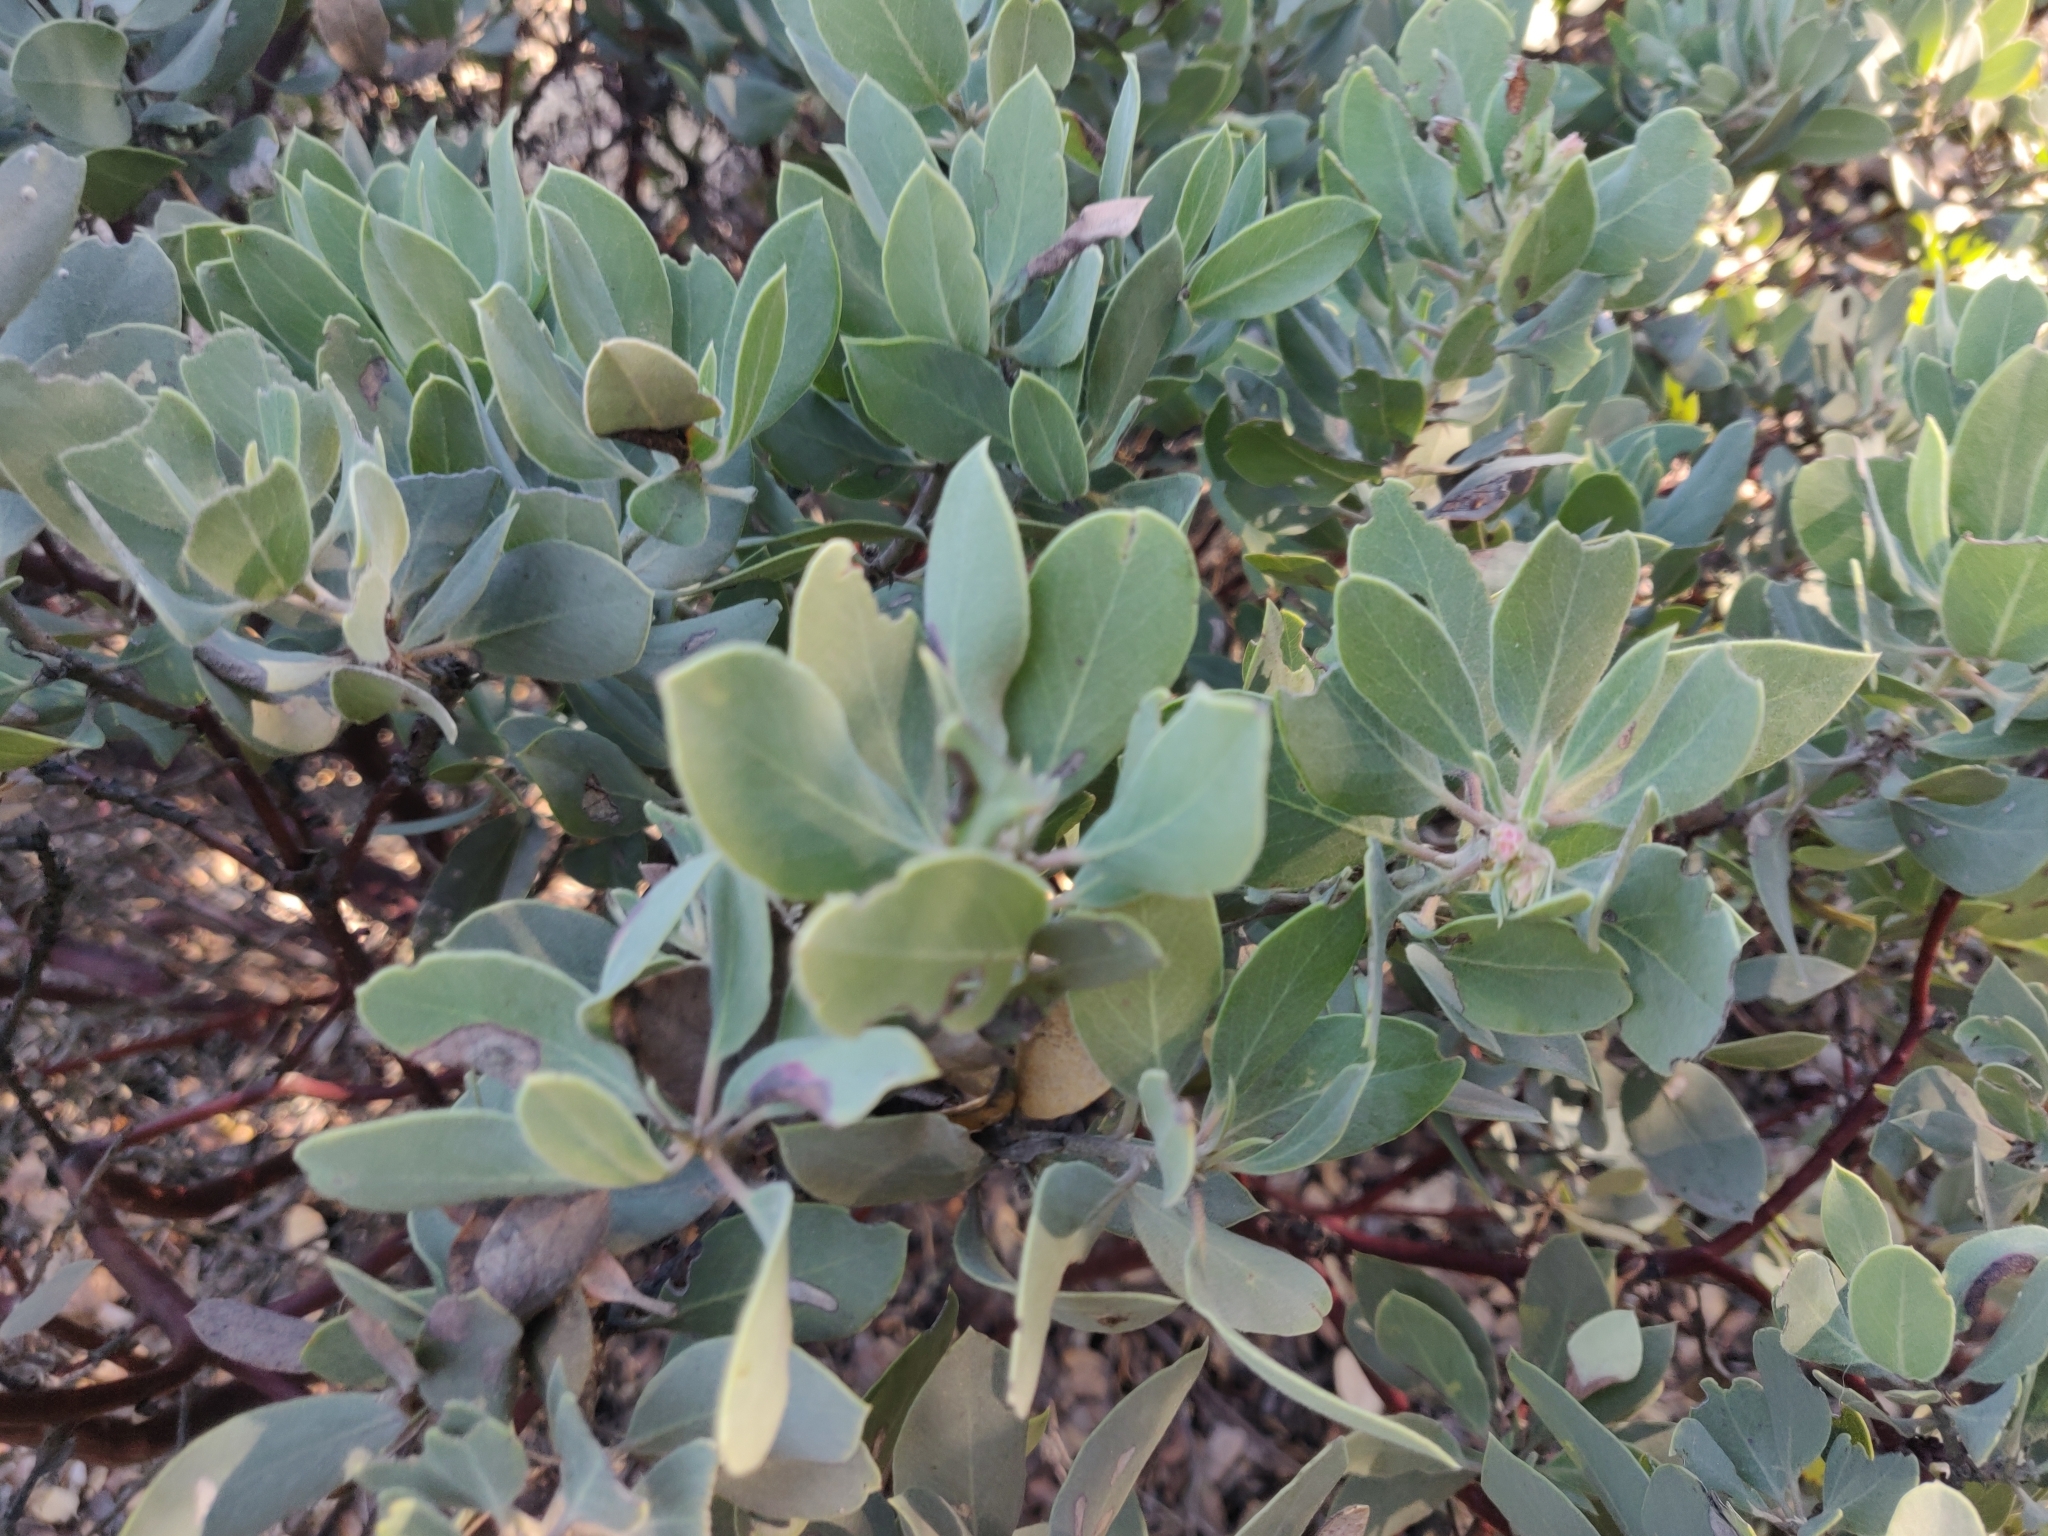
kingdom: Plantae
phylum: Tracheophyta
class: Magnoliopsida
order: Ericales
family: Ericaceae
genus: Arctostaphylos
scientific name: Arctostaphylos glandulosa
